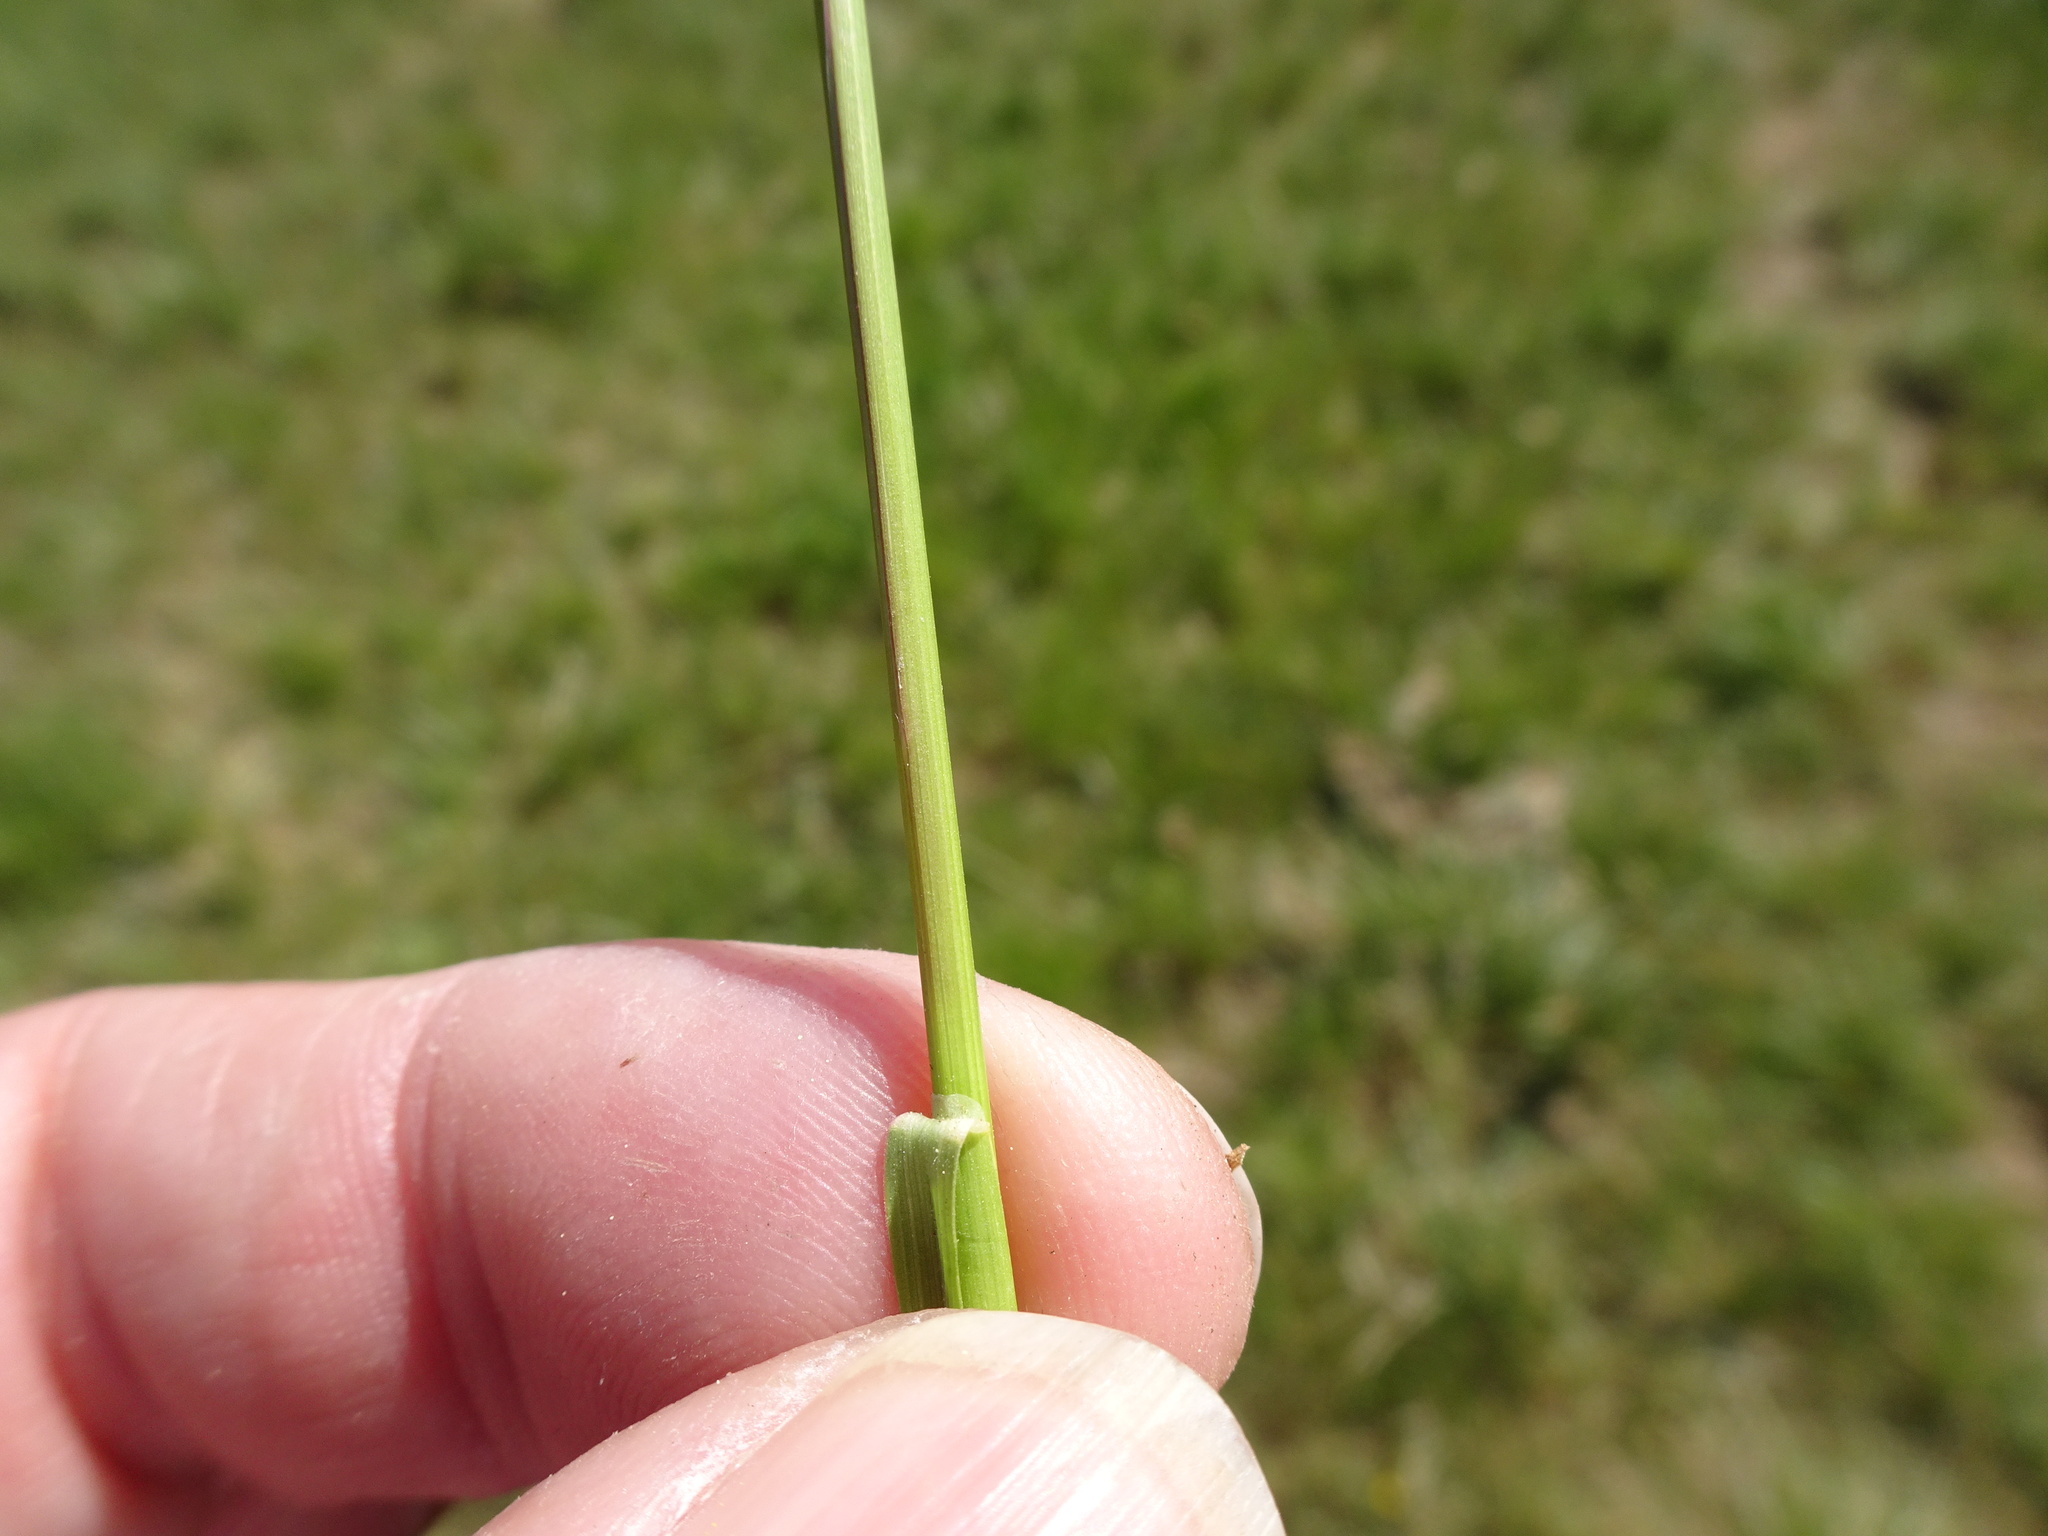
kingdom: Plantae
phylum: Tracheophyta
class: Liliopsida
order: Poales
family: Poaceae
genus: Poa
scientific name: Poa pratensis
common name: Kentucky bluegrass
